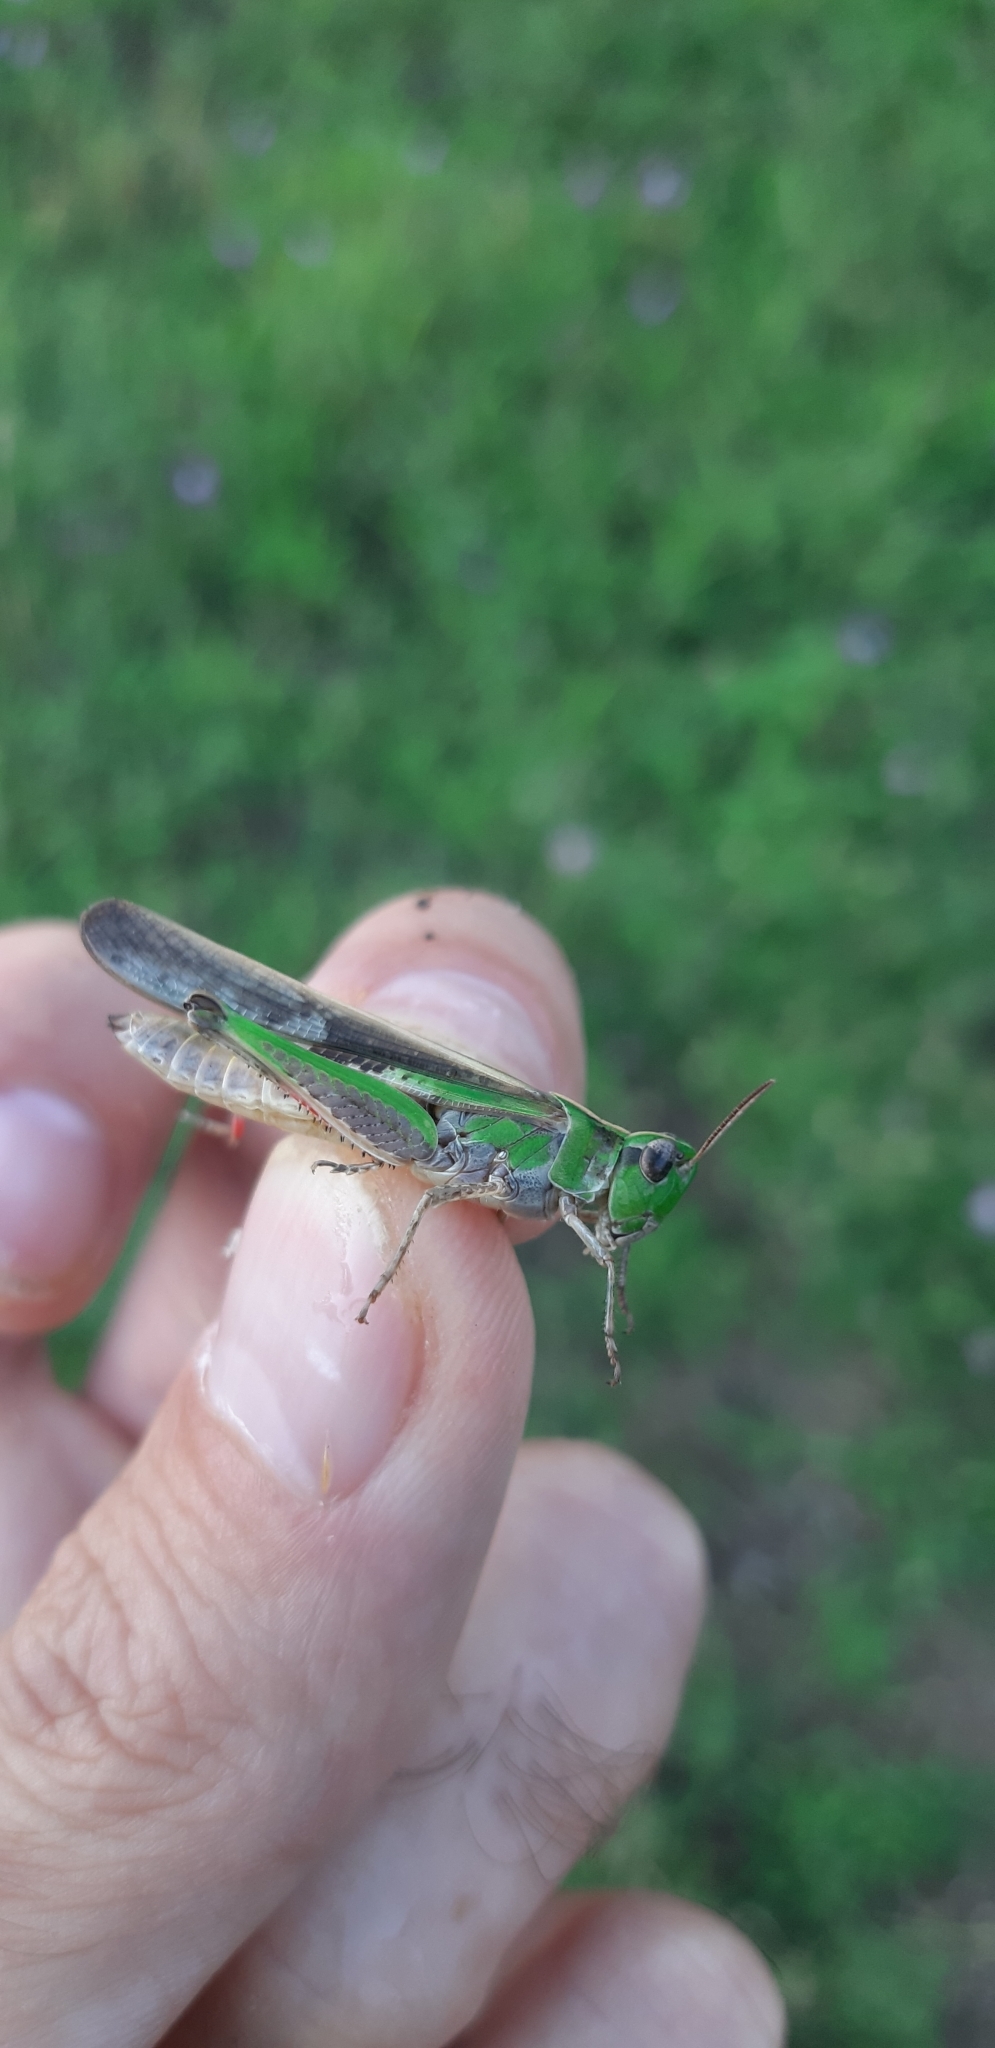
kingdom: Animalia
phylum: Arthropoda
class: Insecta
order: Orthoptera
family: Acrididae
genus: Aiolopus
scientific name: Aiolopus thalassinus
